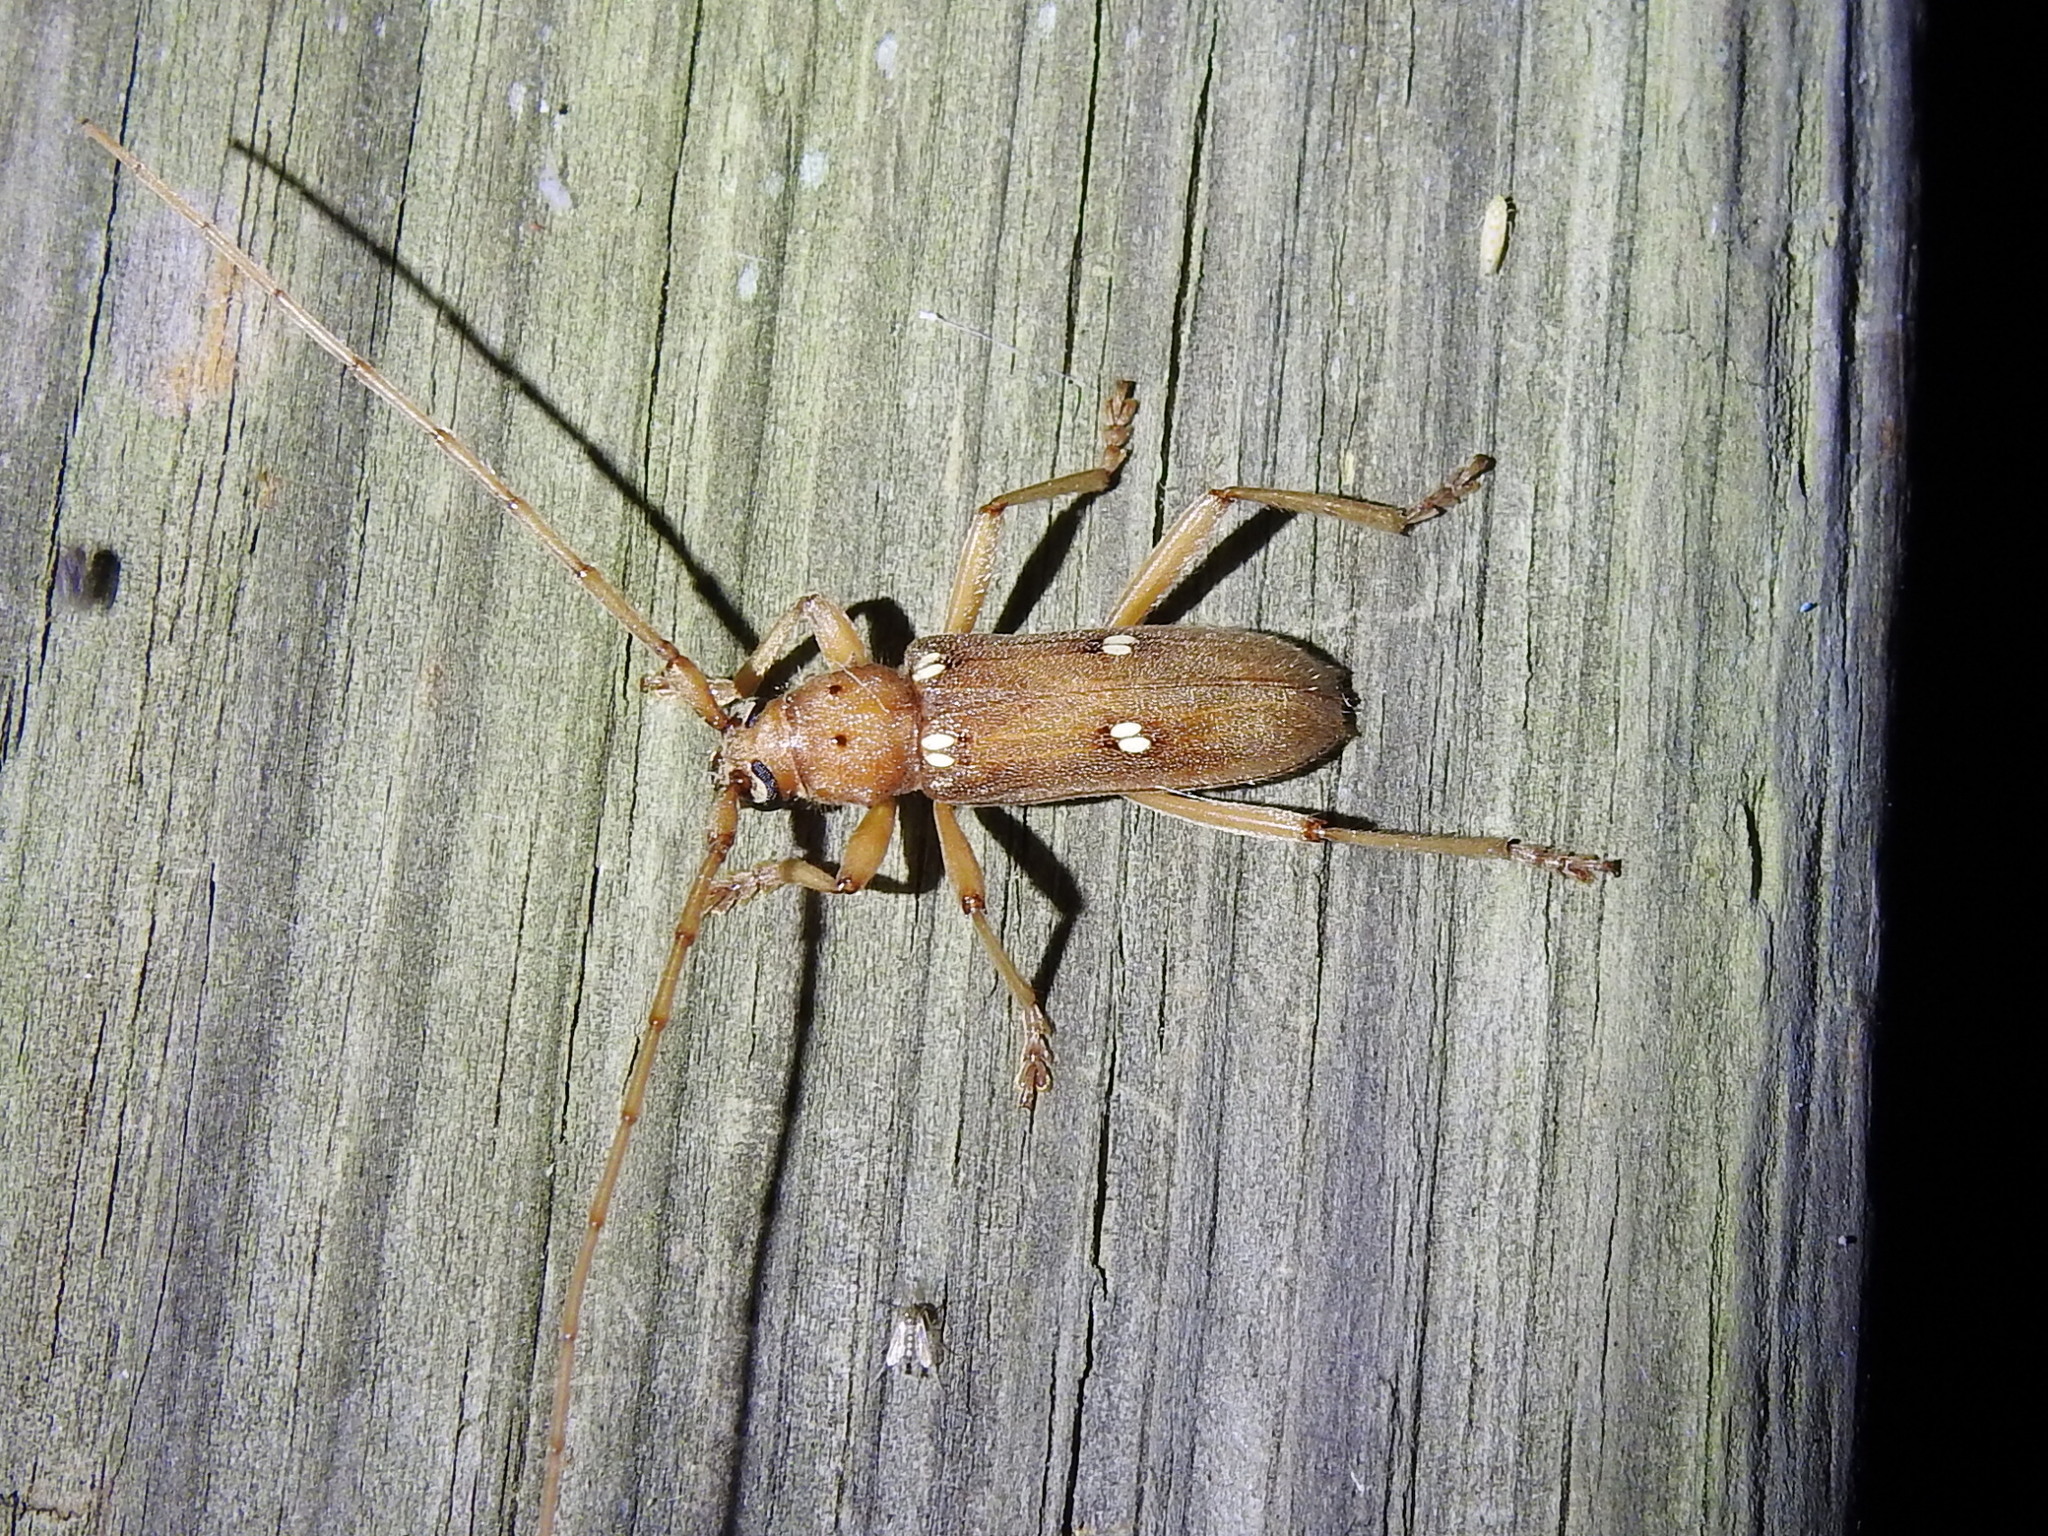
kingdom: Animalia
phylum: Arthropoda
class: Insecta
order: Coleoptera
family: Cerambycidae
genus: Eburia
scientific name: Eburia haldemani
